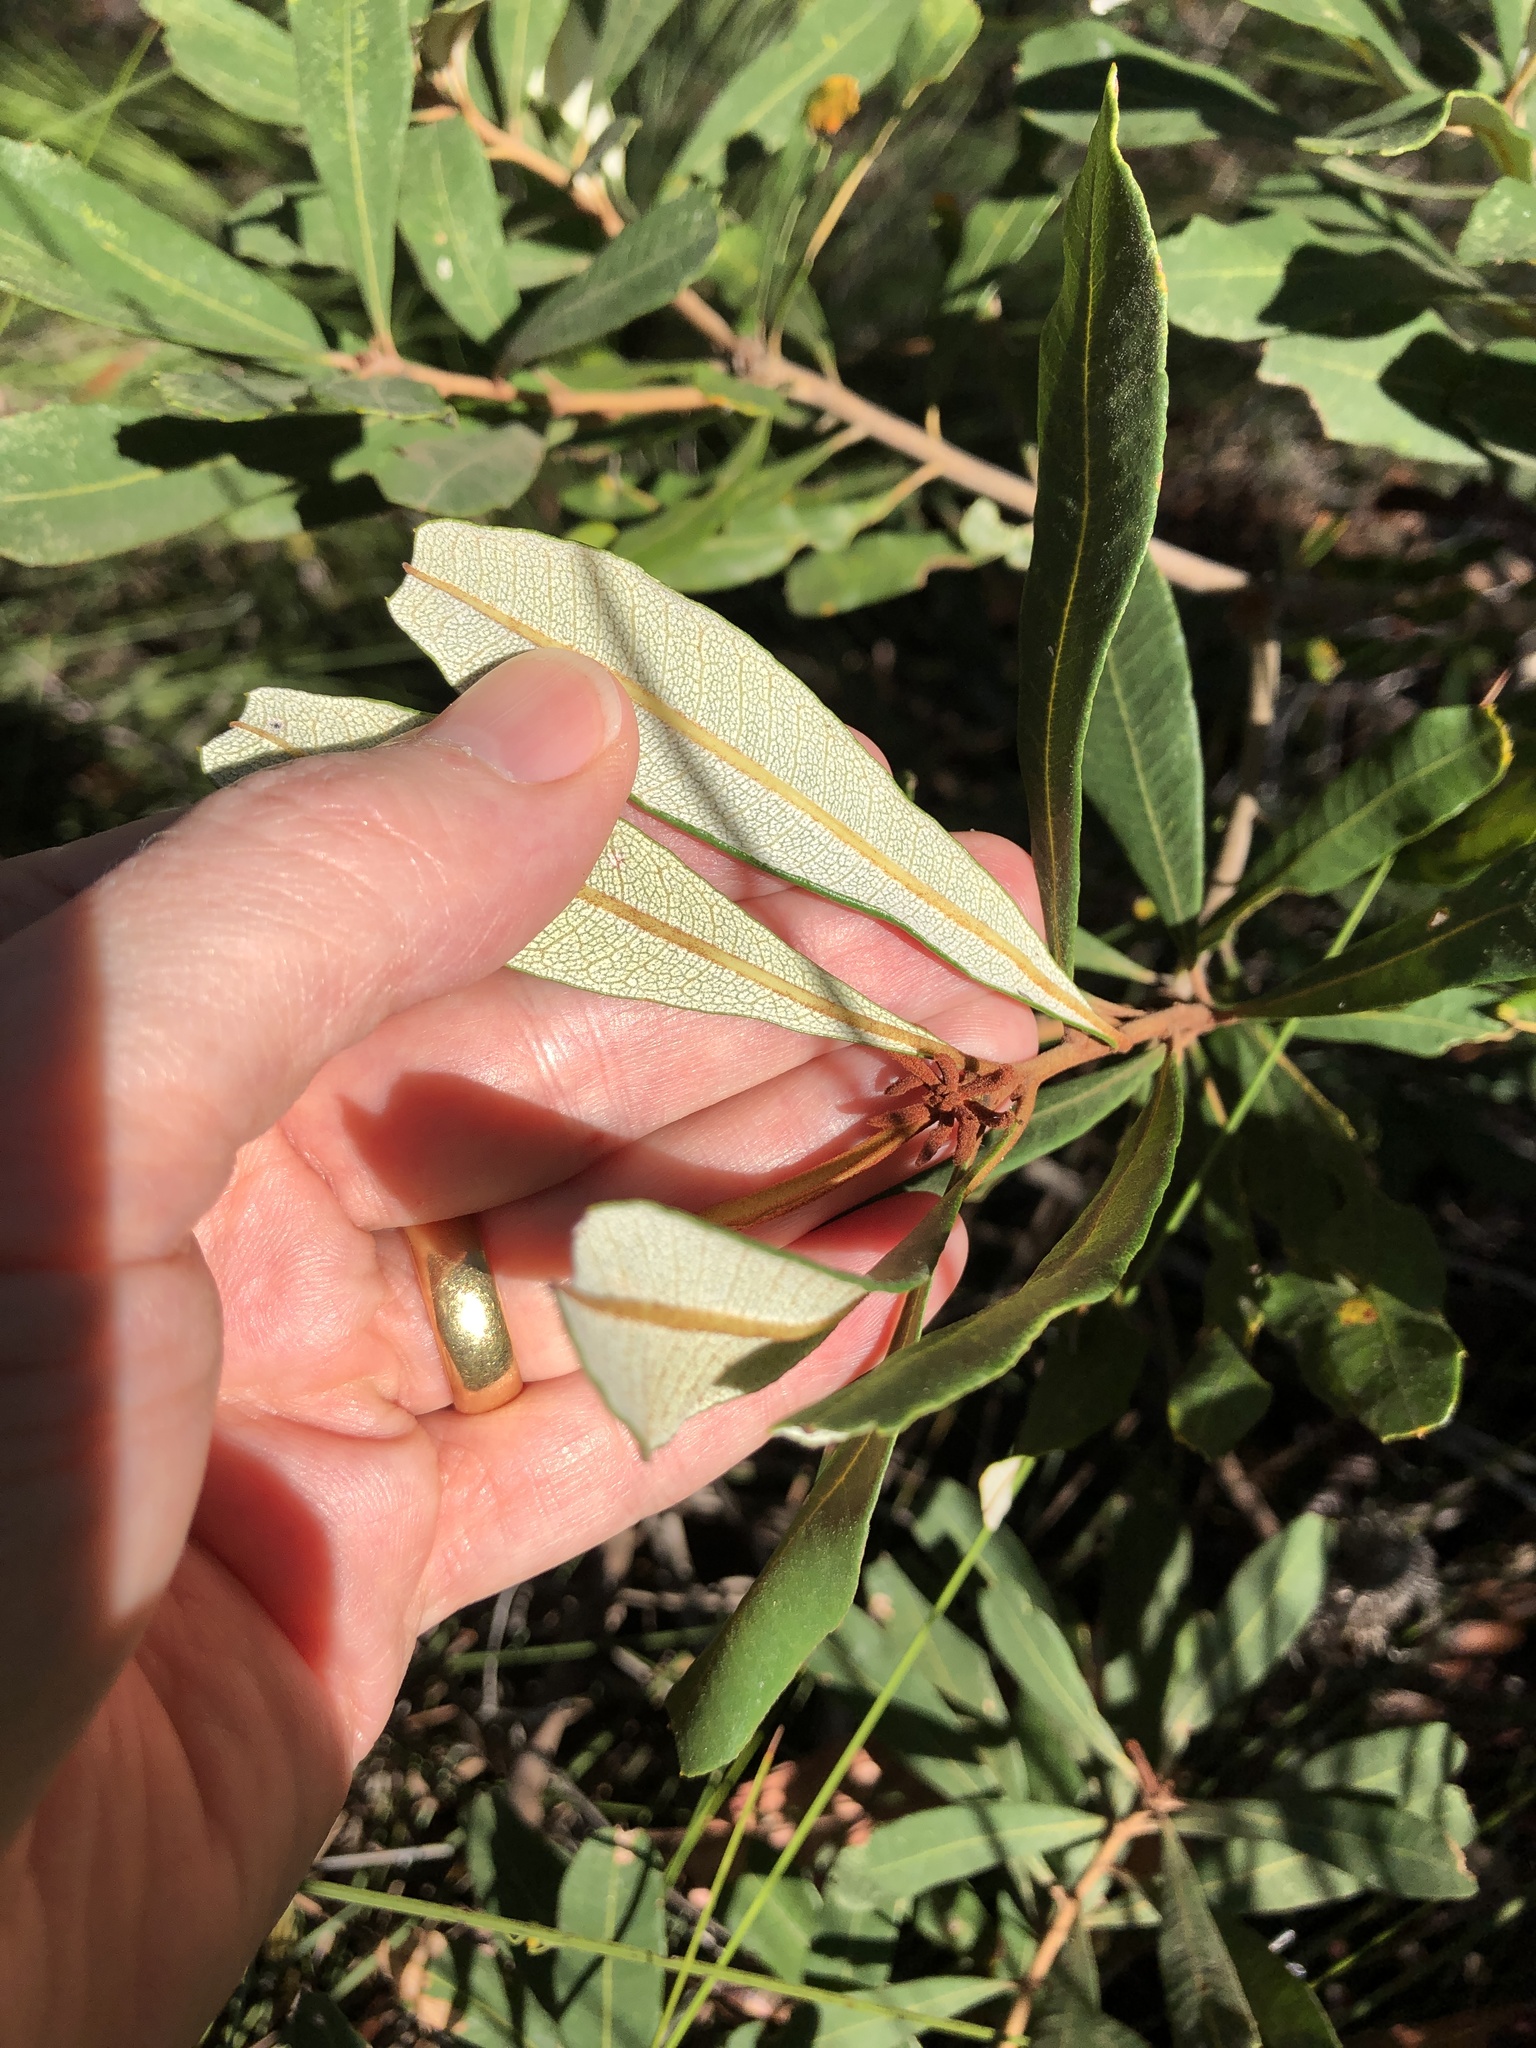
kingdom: Plantae
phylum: Tracheophyta
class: Magnoliopsida
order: Proteales
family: Proteaceae
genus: Banksia
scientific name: Banksia integrifolia
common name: White-honeysuckle
